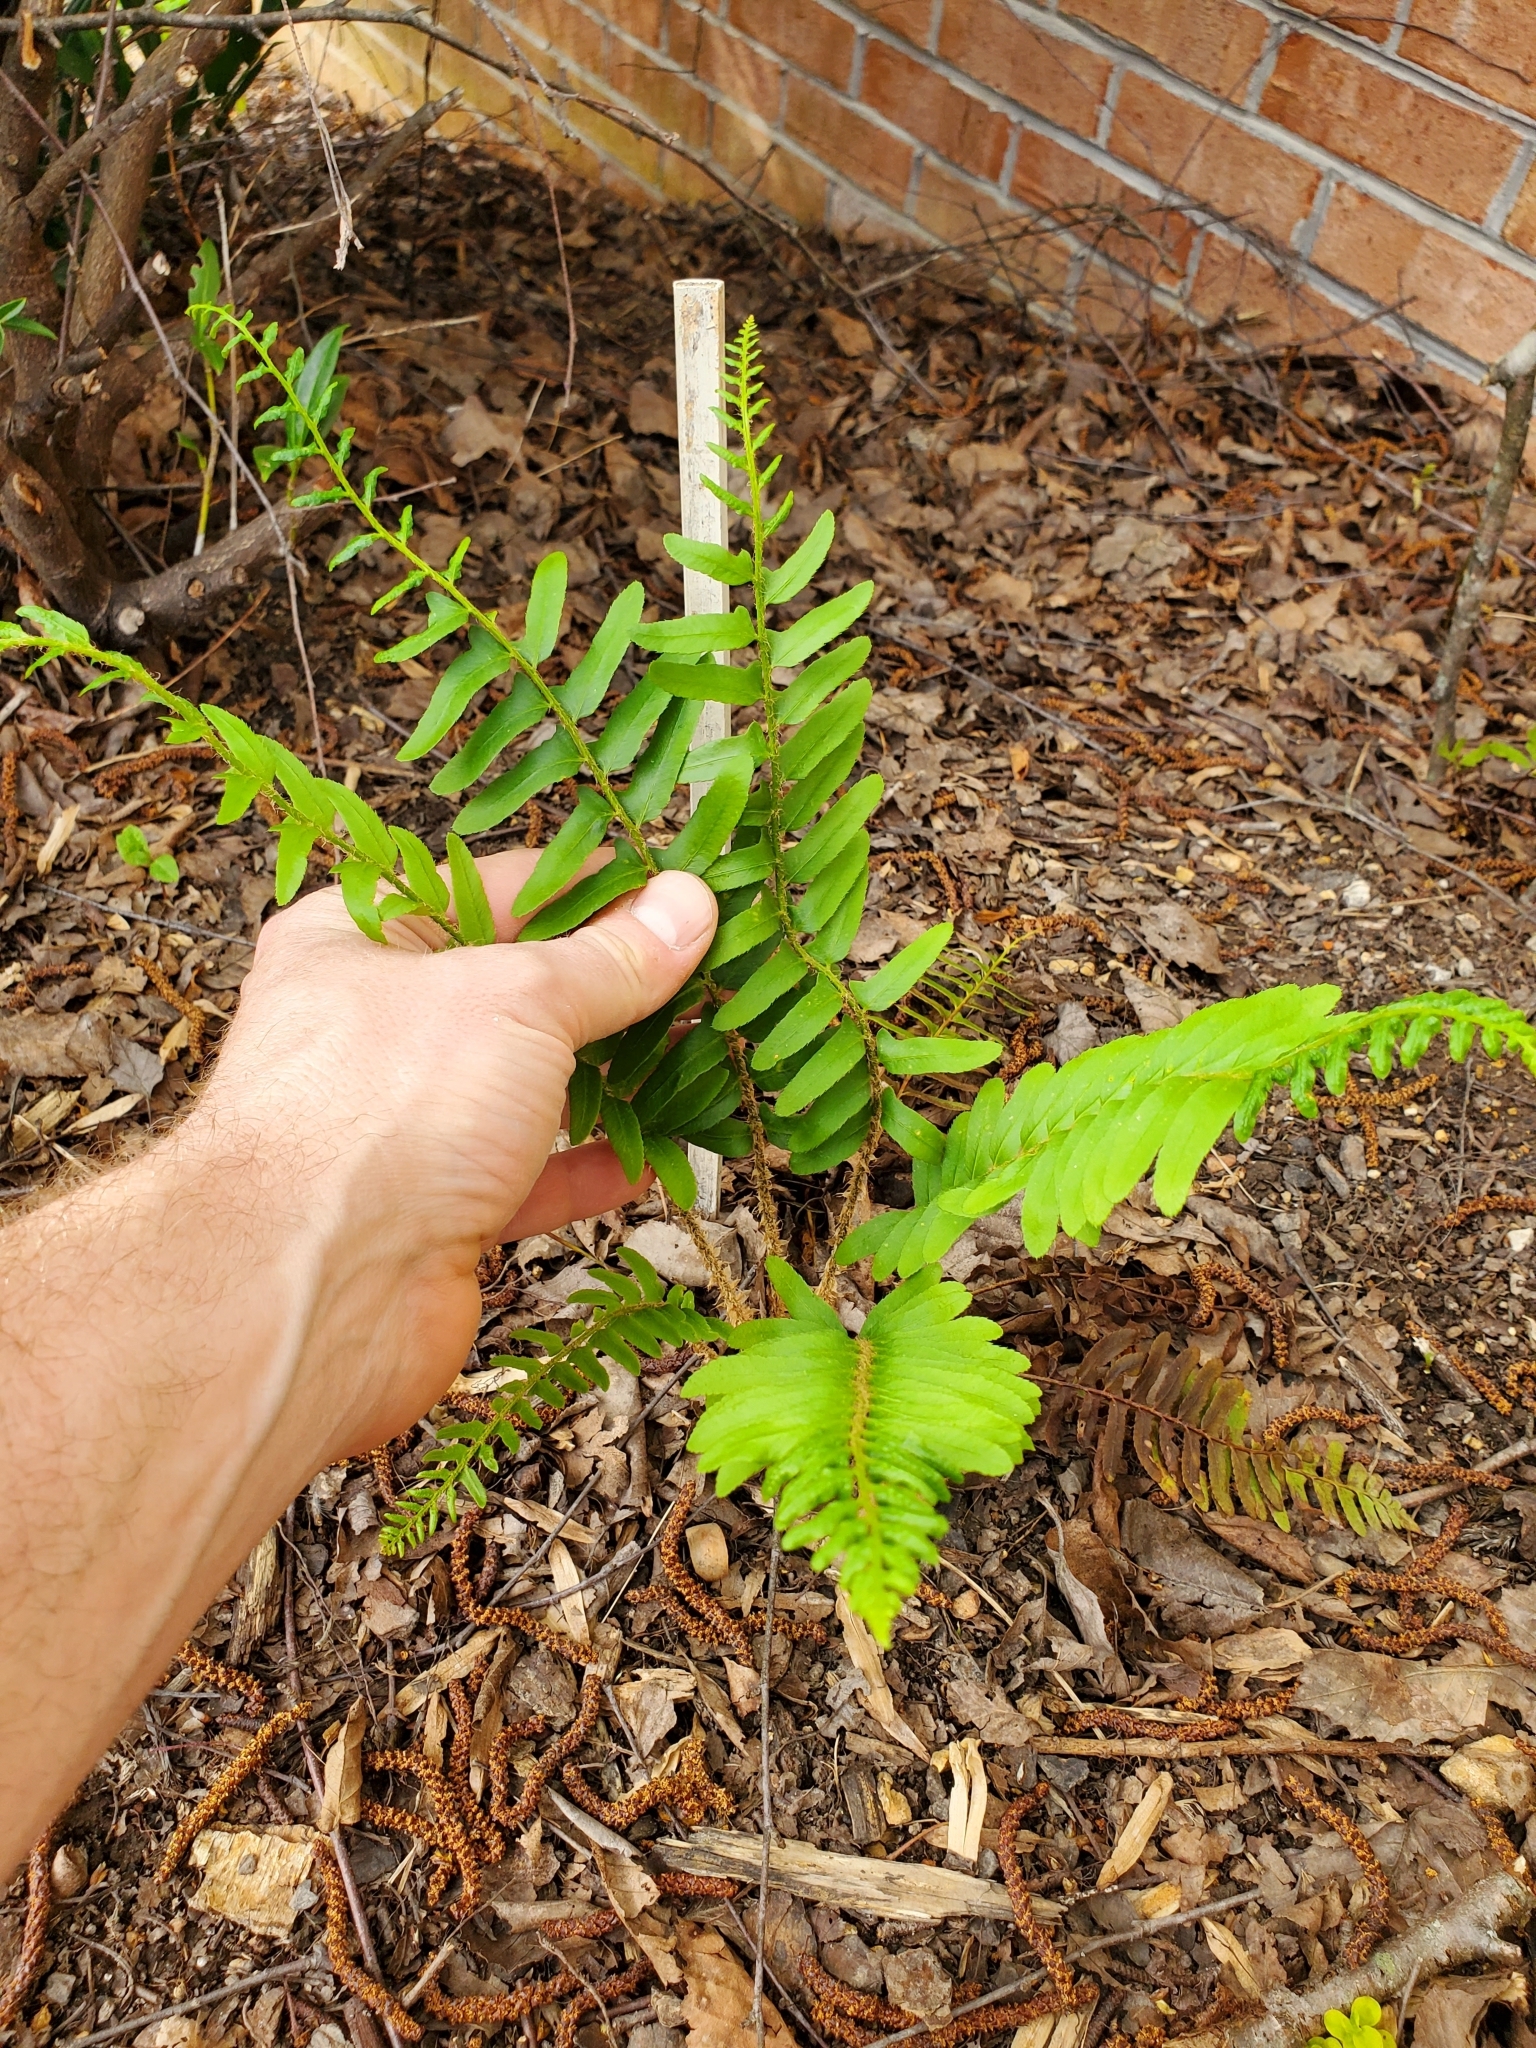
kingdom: Plantae
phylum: Tracheophyta
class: Polypodiopsida
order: Polypodiales
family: Dryopteridaceae
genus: Polystichum
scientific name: Polystichum acrostichoides
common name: Christmas fern
